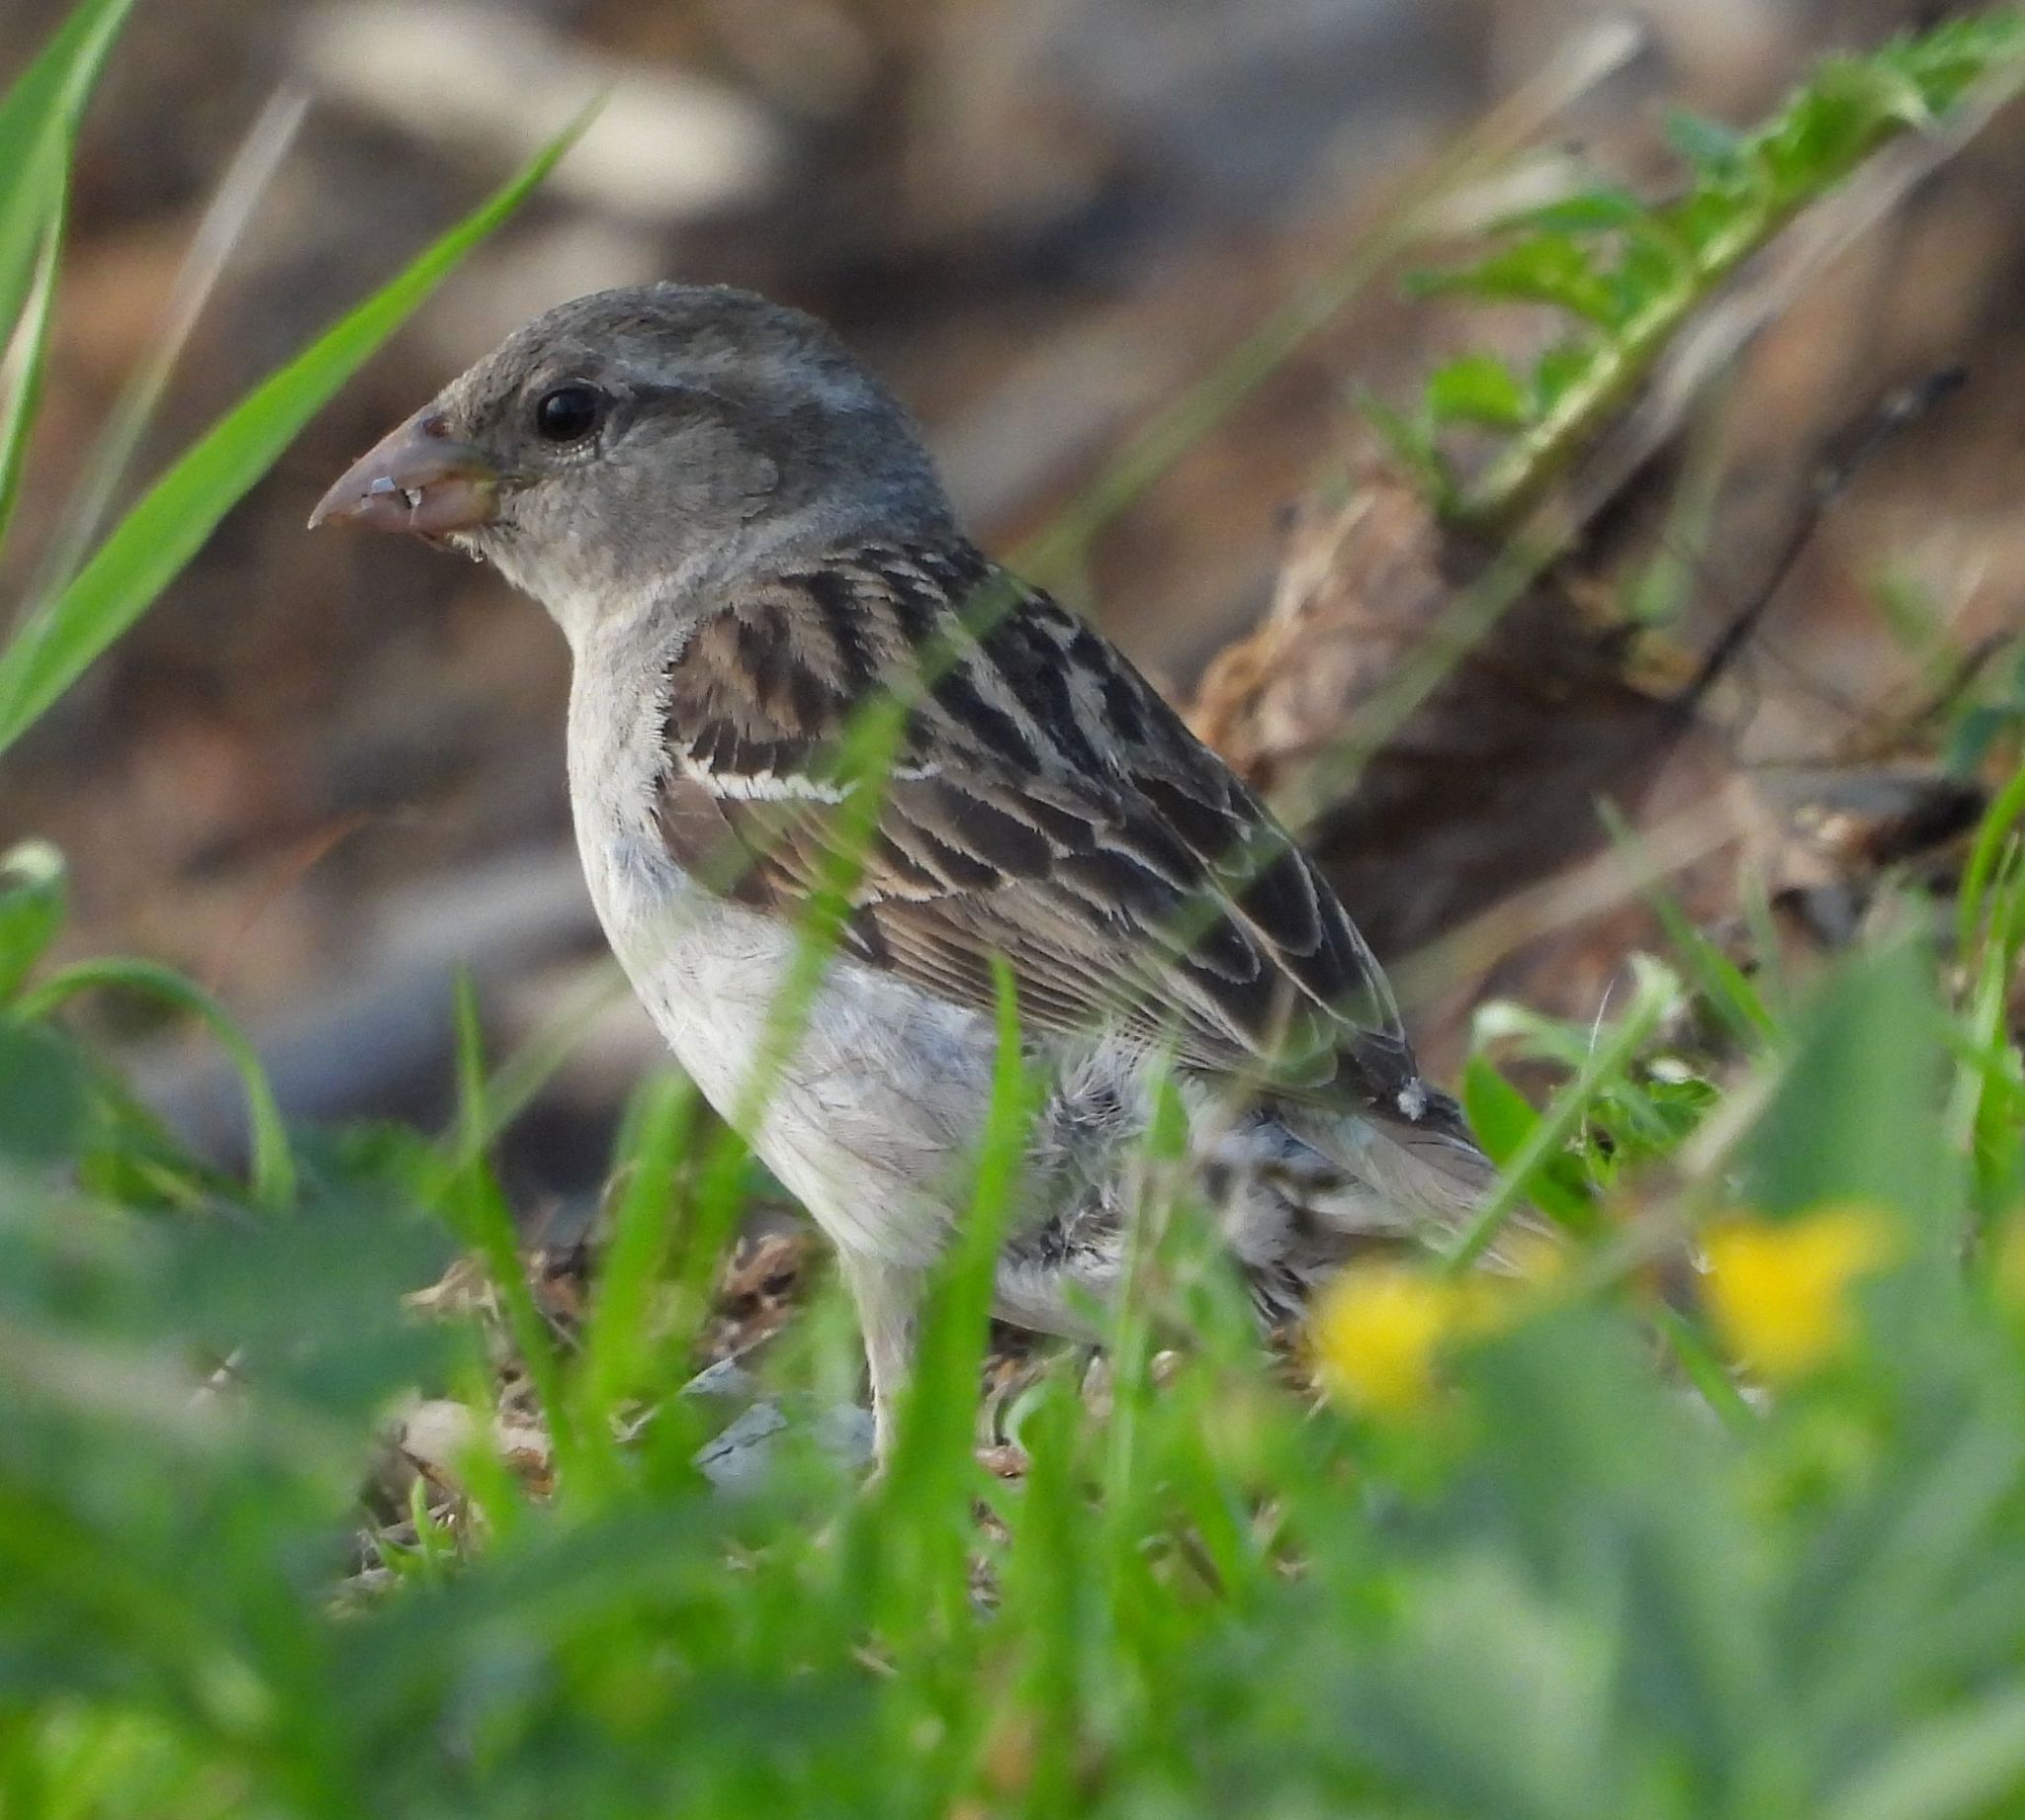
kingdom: Animalia
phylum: Chordata
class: Aves
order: Passeriformes
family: Passeridae
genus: Passer
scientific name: Passer domesticus
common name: House sparrow
